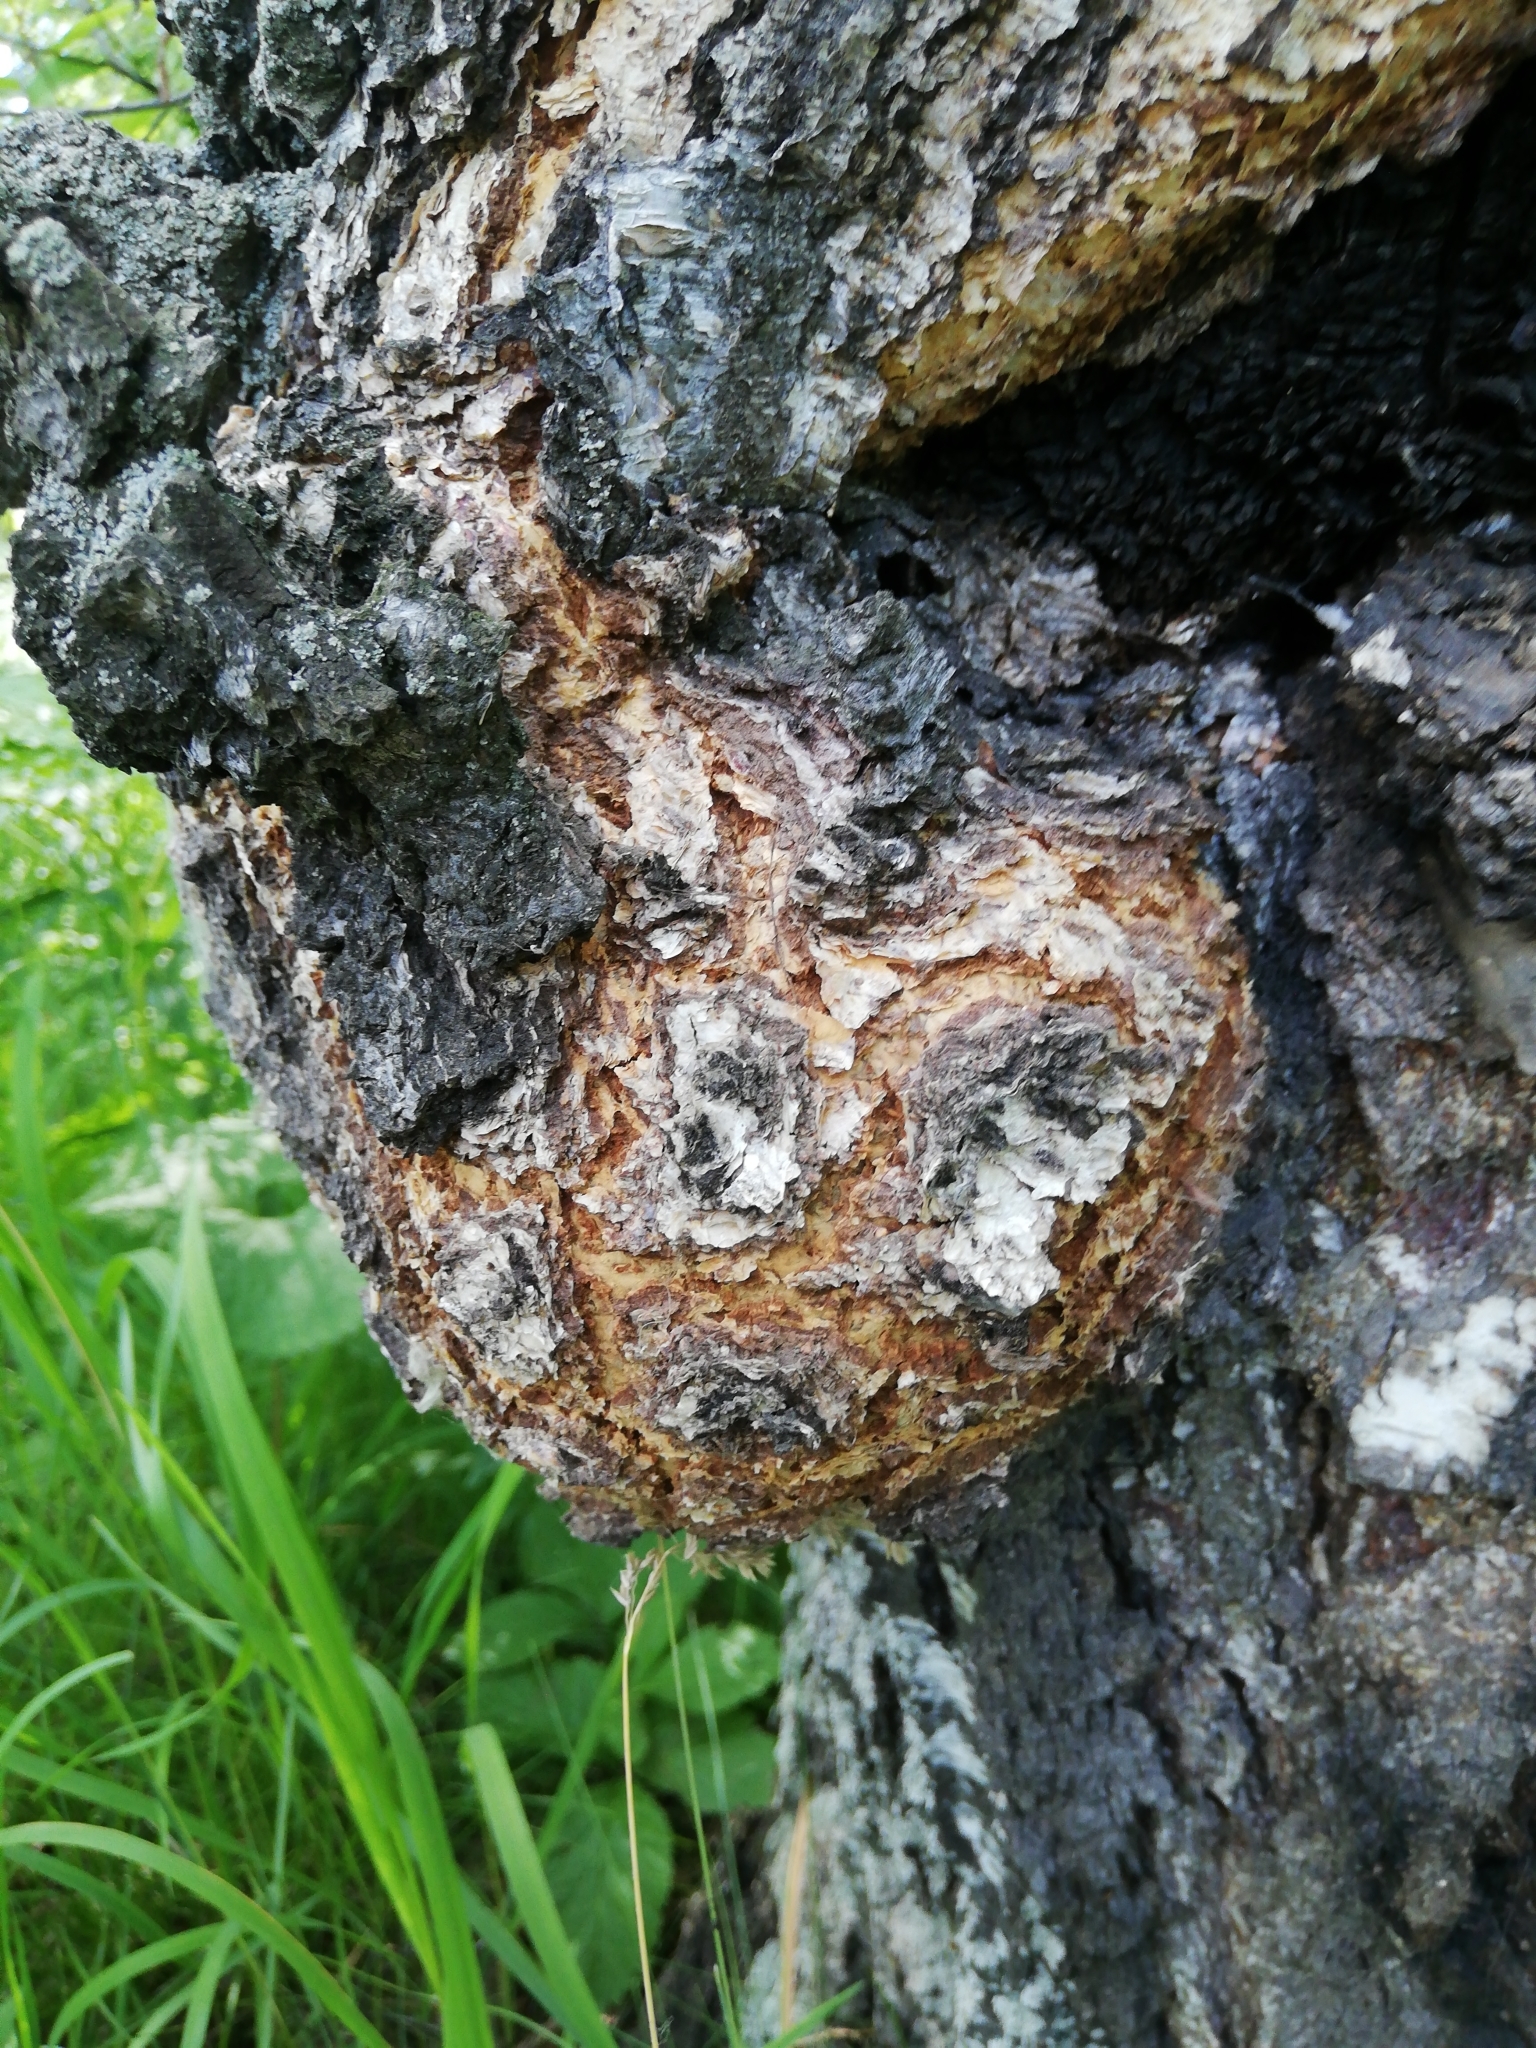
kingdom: Bacteria
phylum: Proteobacteria
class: Alphaproteobacteria
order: Rhizobiales
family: Rhizobiaceae
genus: Rhizobium
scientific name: Rhizobium Agrobacterium radiobacter
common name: Bacterial crown gall
